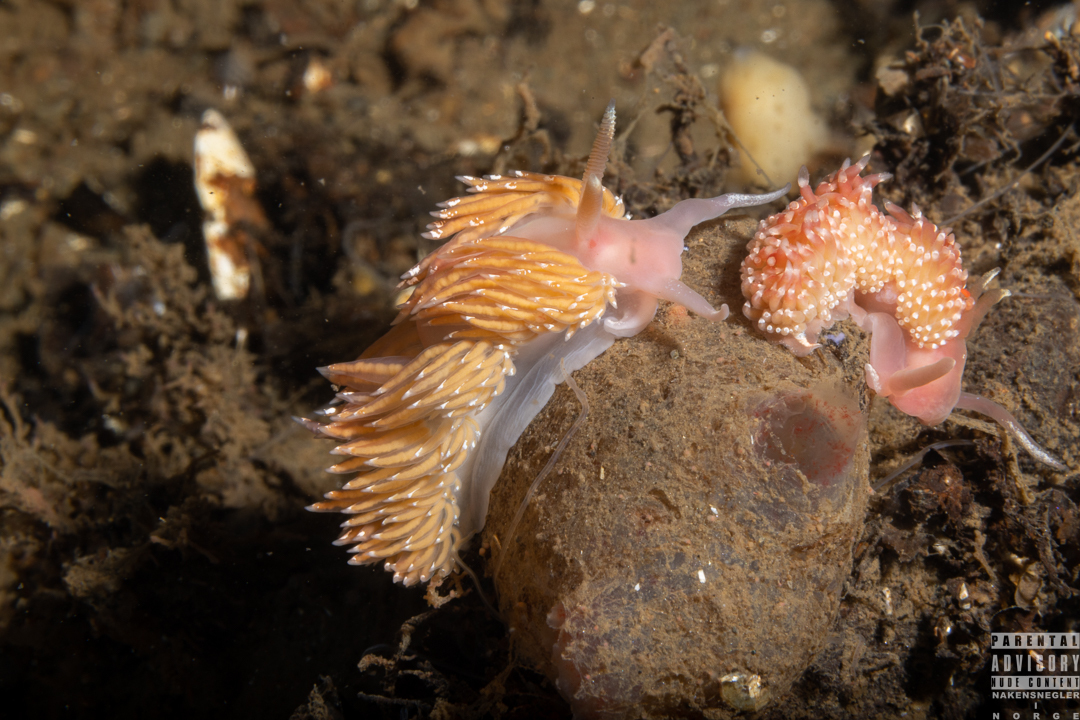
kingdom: Animalia
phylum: Mollusca
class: Gastropoda
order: Nudibranchia
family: Facelinidae
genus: Facelina
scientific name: Facelina bostoniensis
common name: Boston facelina
